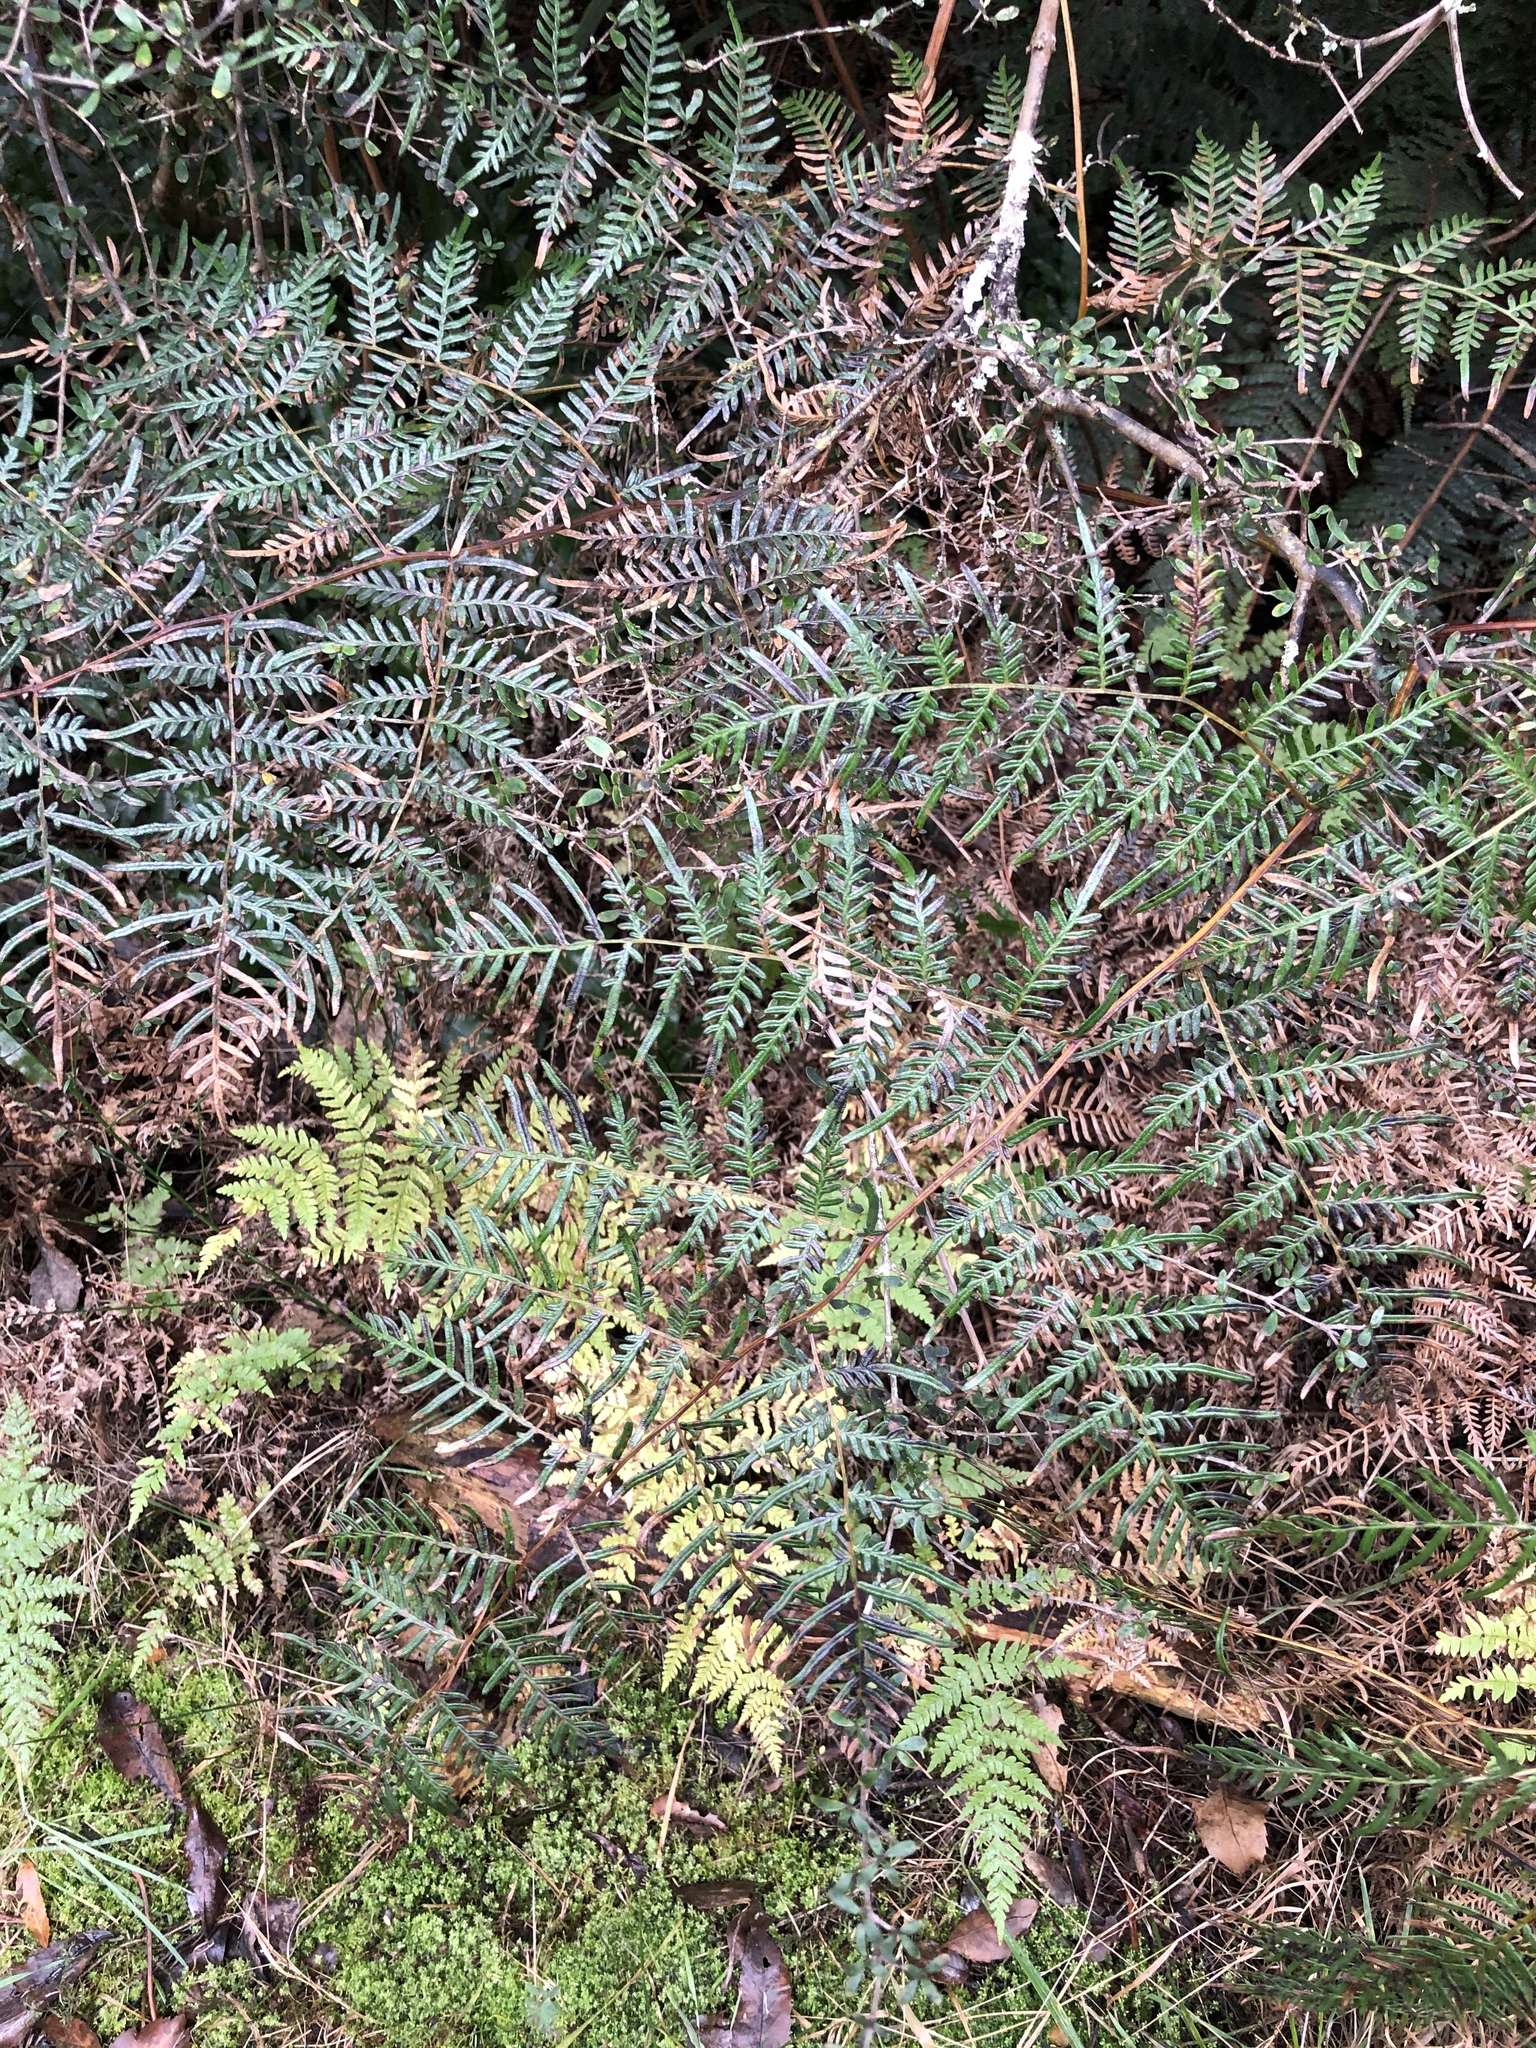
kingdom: Plantae
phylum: Tracheophyta
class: Polypodiopsida
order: Polypodiales
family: Dennstaedtiaceae
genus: Pteridium
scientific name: Pteridium esculentum
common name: Bracken fern
